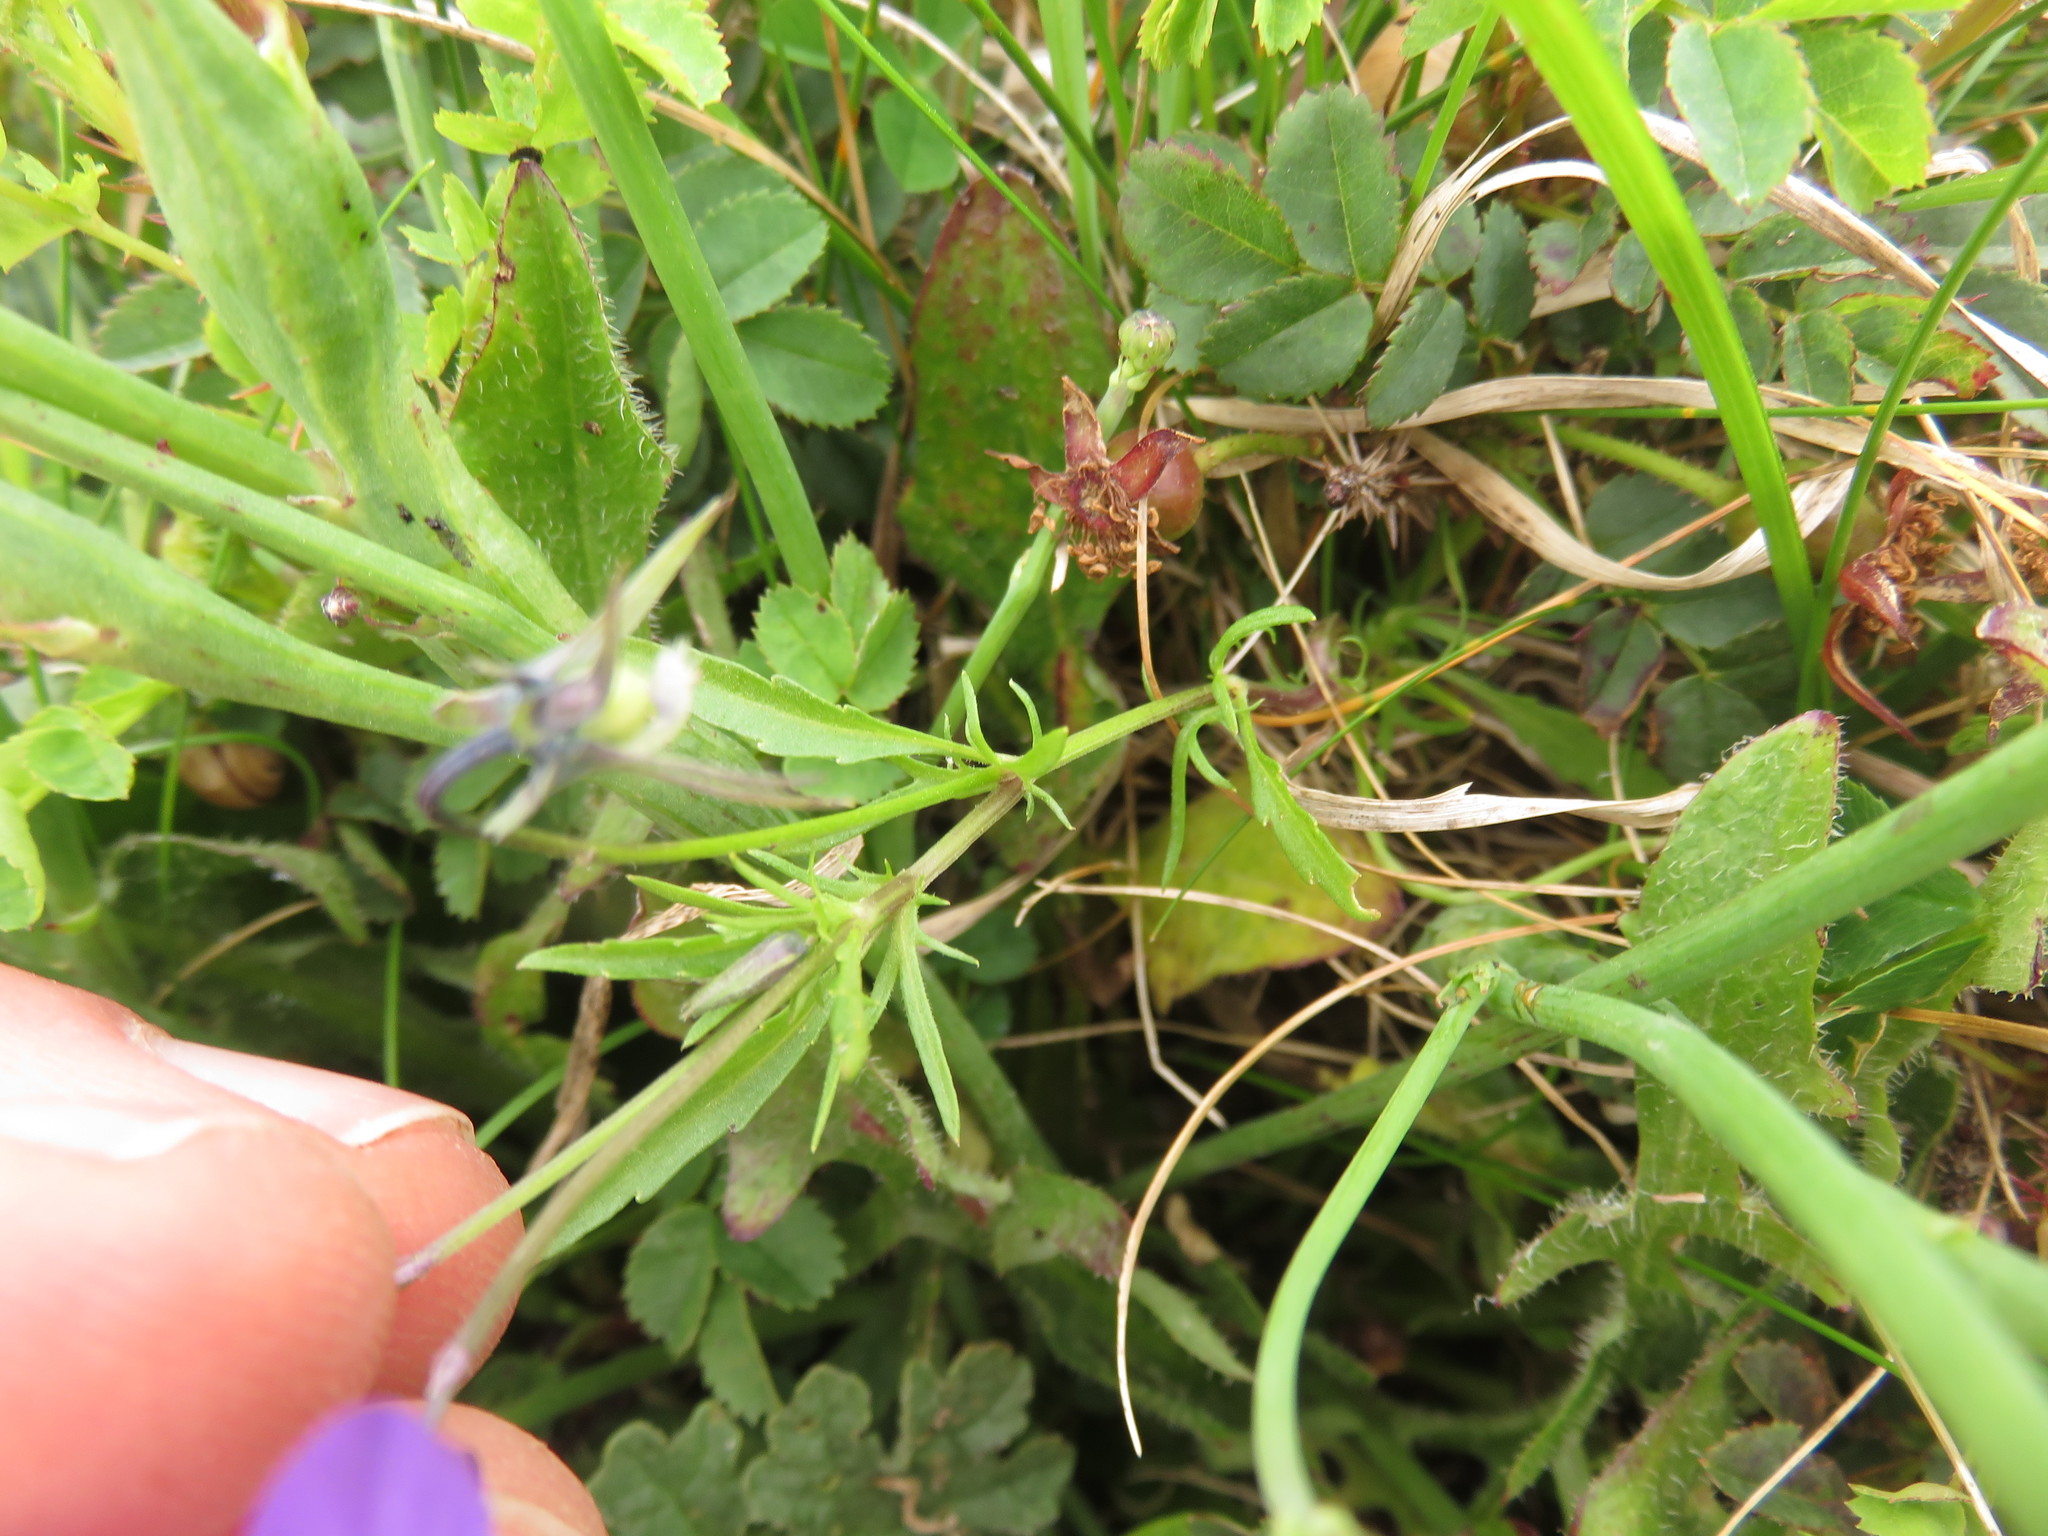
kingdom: Plantae
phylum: Tracheophyta
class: Magnoliopsida
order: Malpighiales
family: Violaceae
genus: Viola
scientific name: Viola tricolor
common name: Pansy
